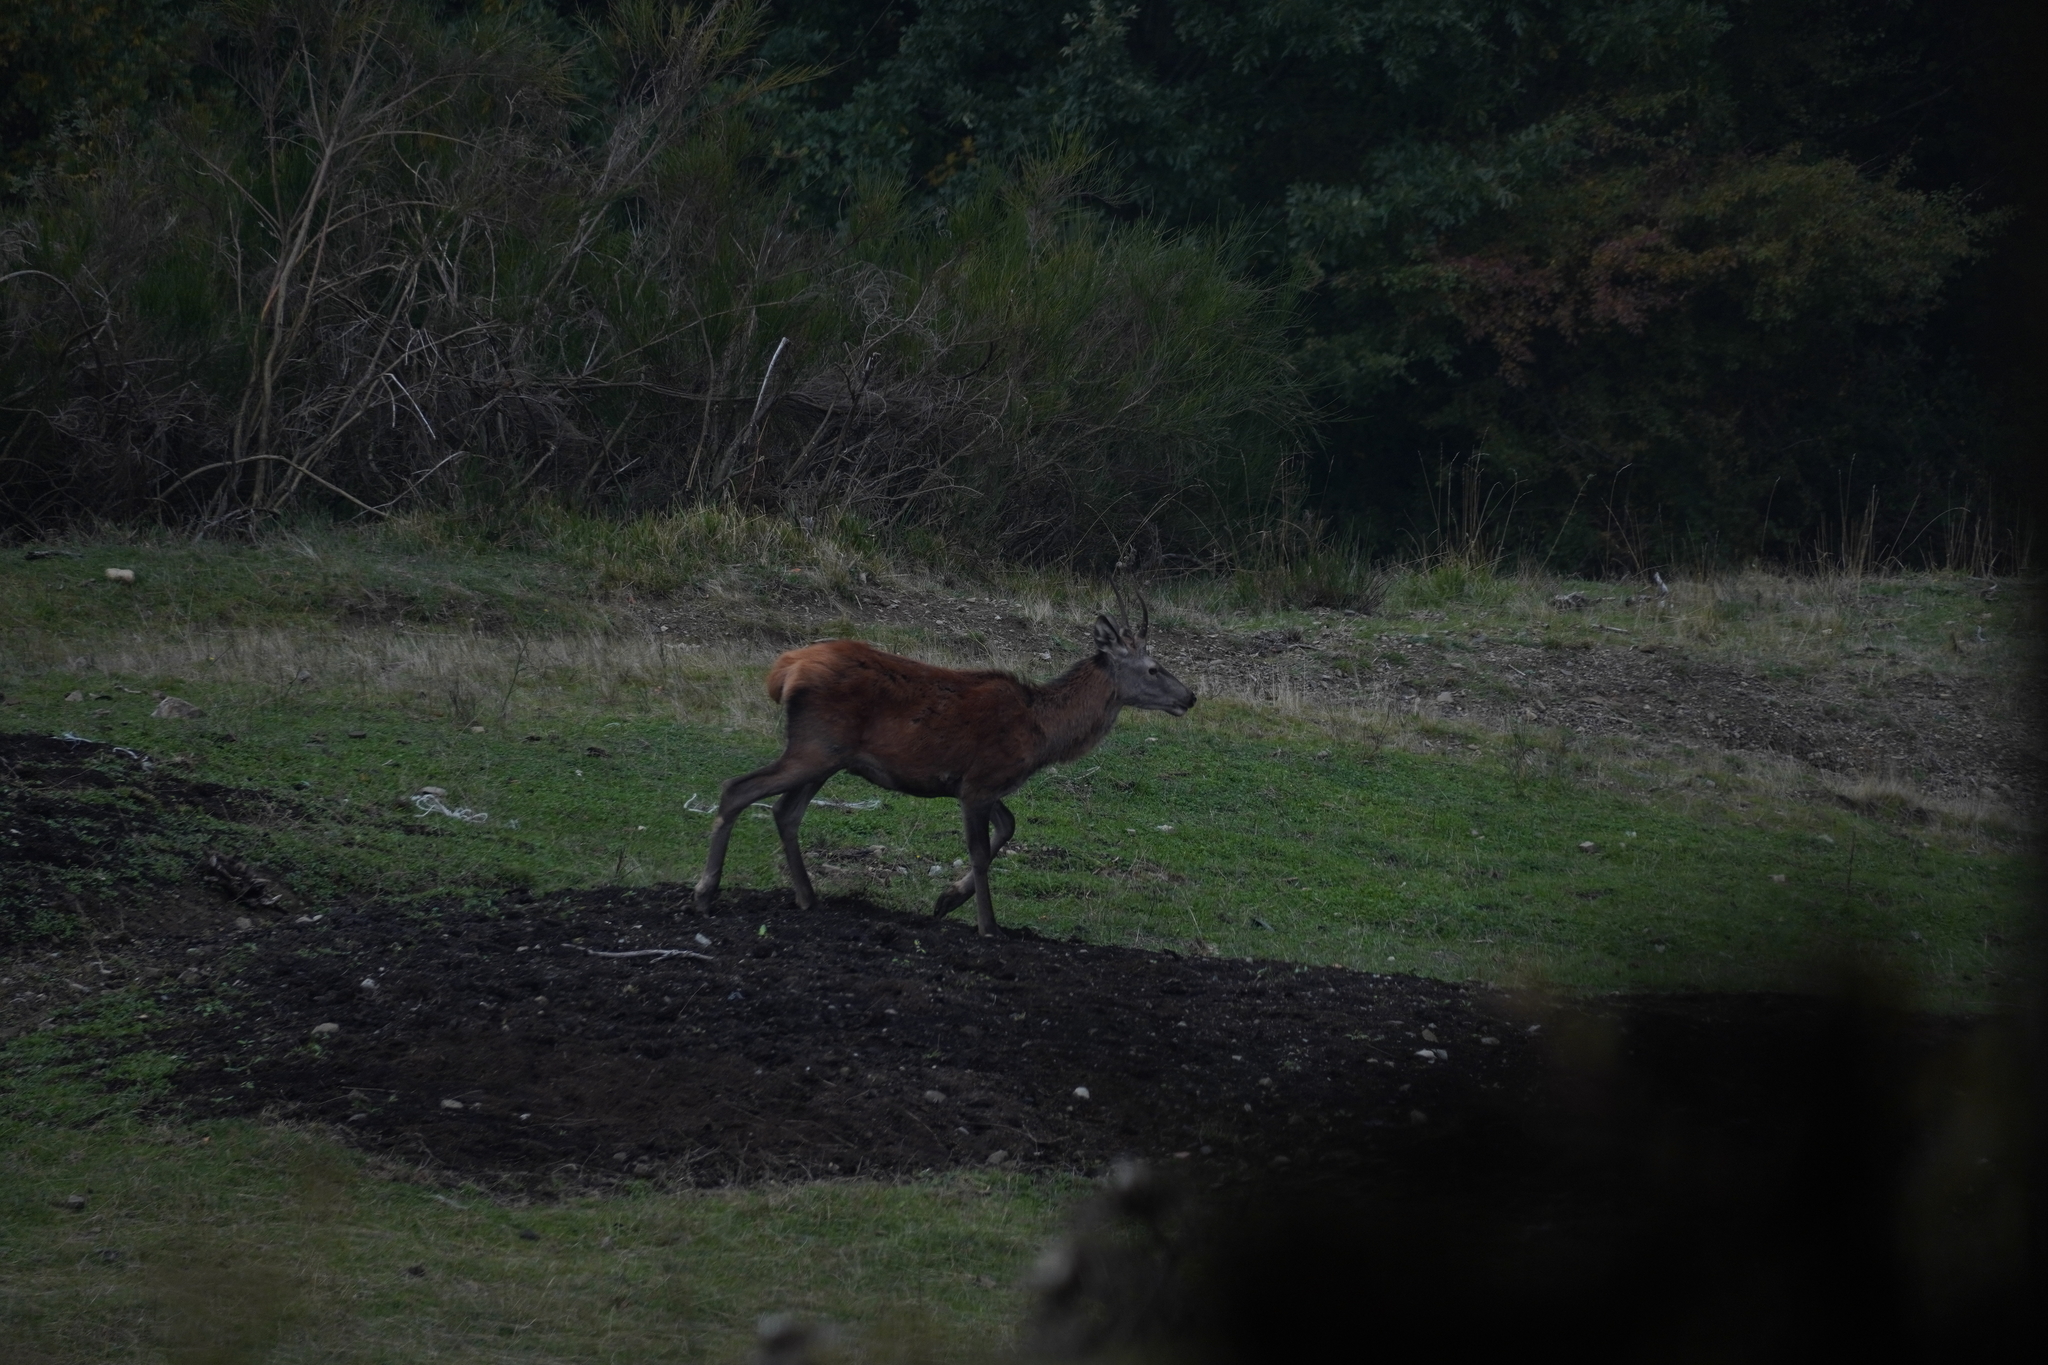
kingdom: Animalia
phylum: Chordata
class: Mammalia
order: Artiodactyla
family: Cervidae
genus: Cervus
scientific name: Cervus elaphus
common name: Red deer
